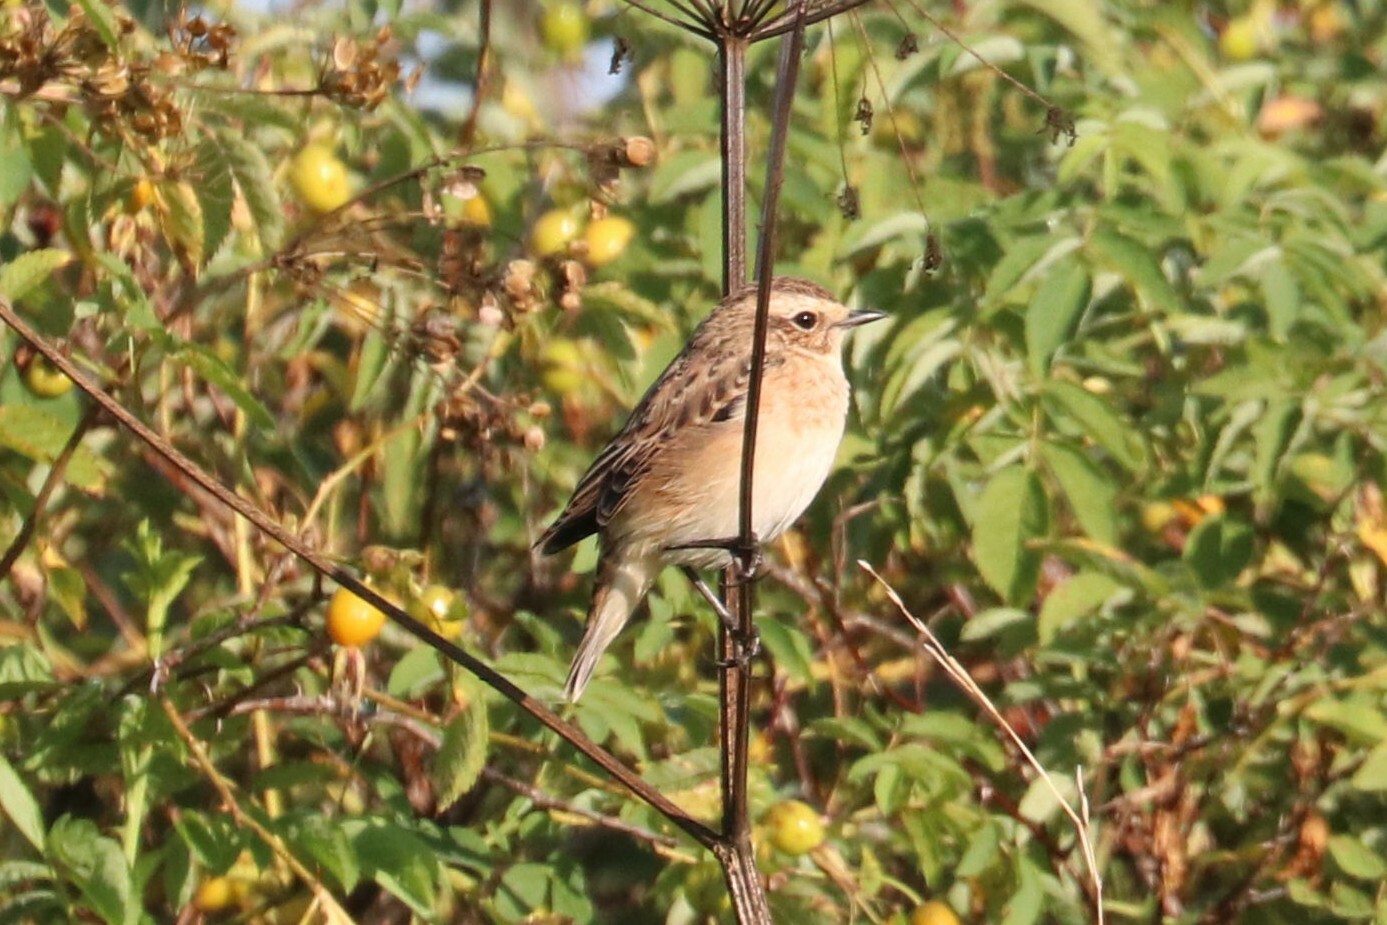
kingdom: Animalia
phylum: Chordata
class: Aves
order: Passeriformes
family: Muscicapidae
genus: Saxicola
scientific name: Saxicola rubetra
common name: Whinchat
